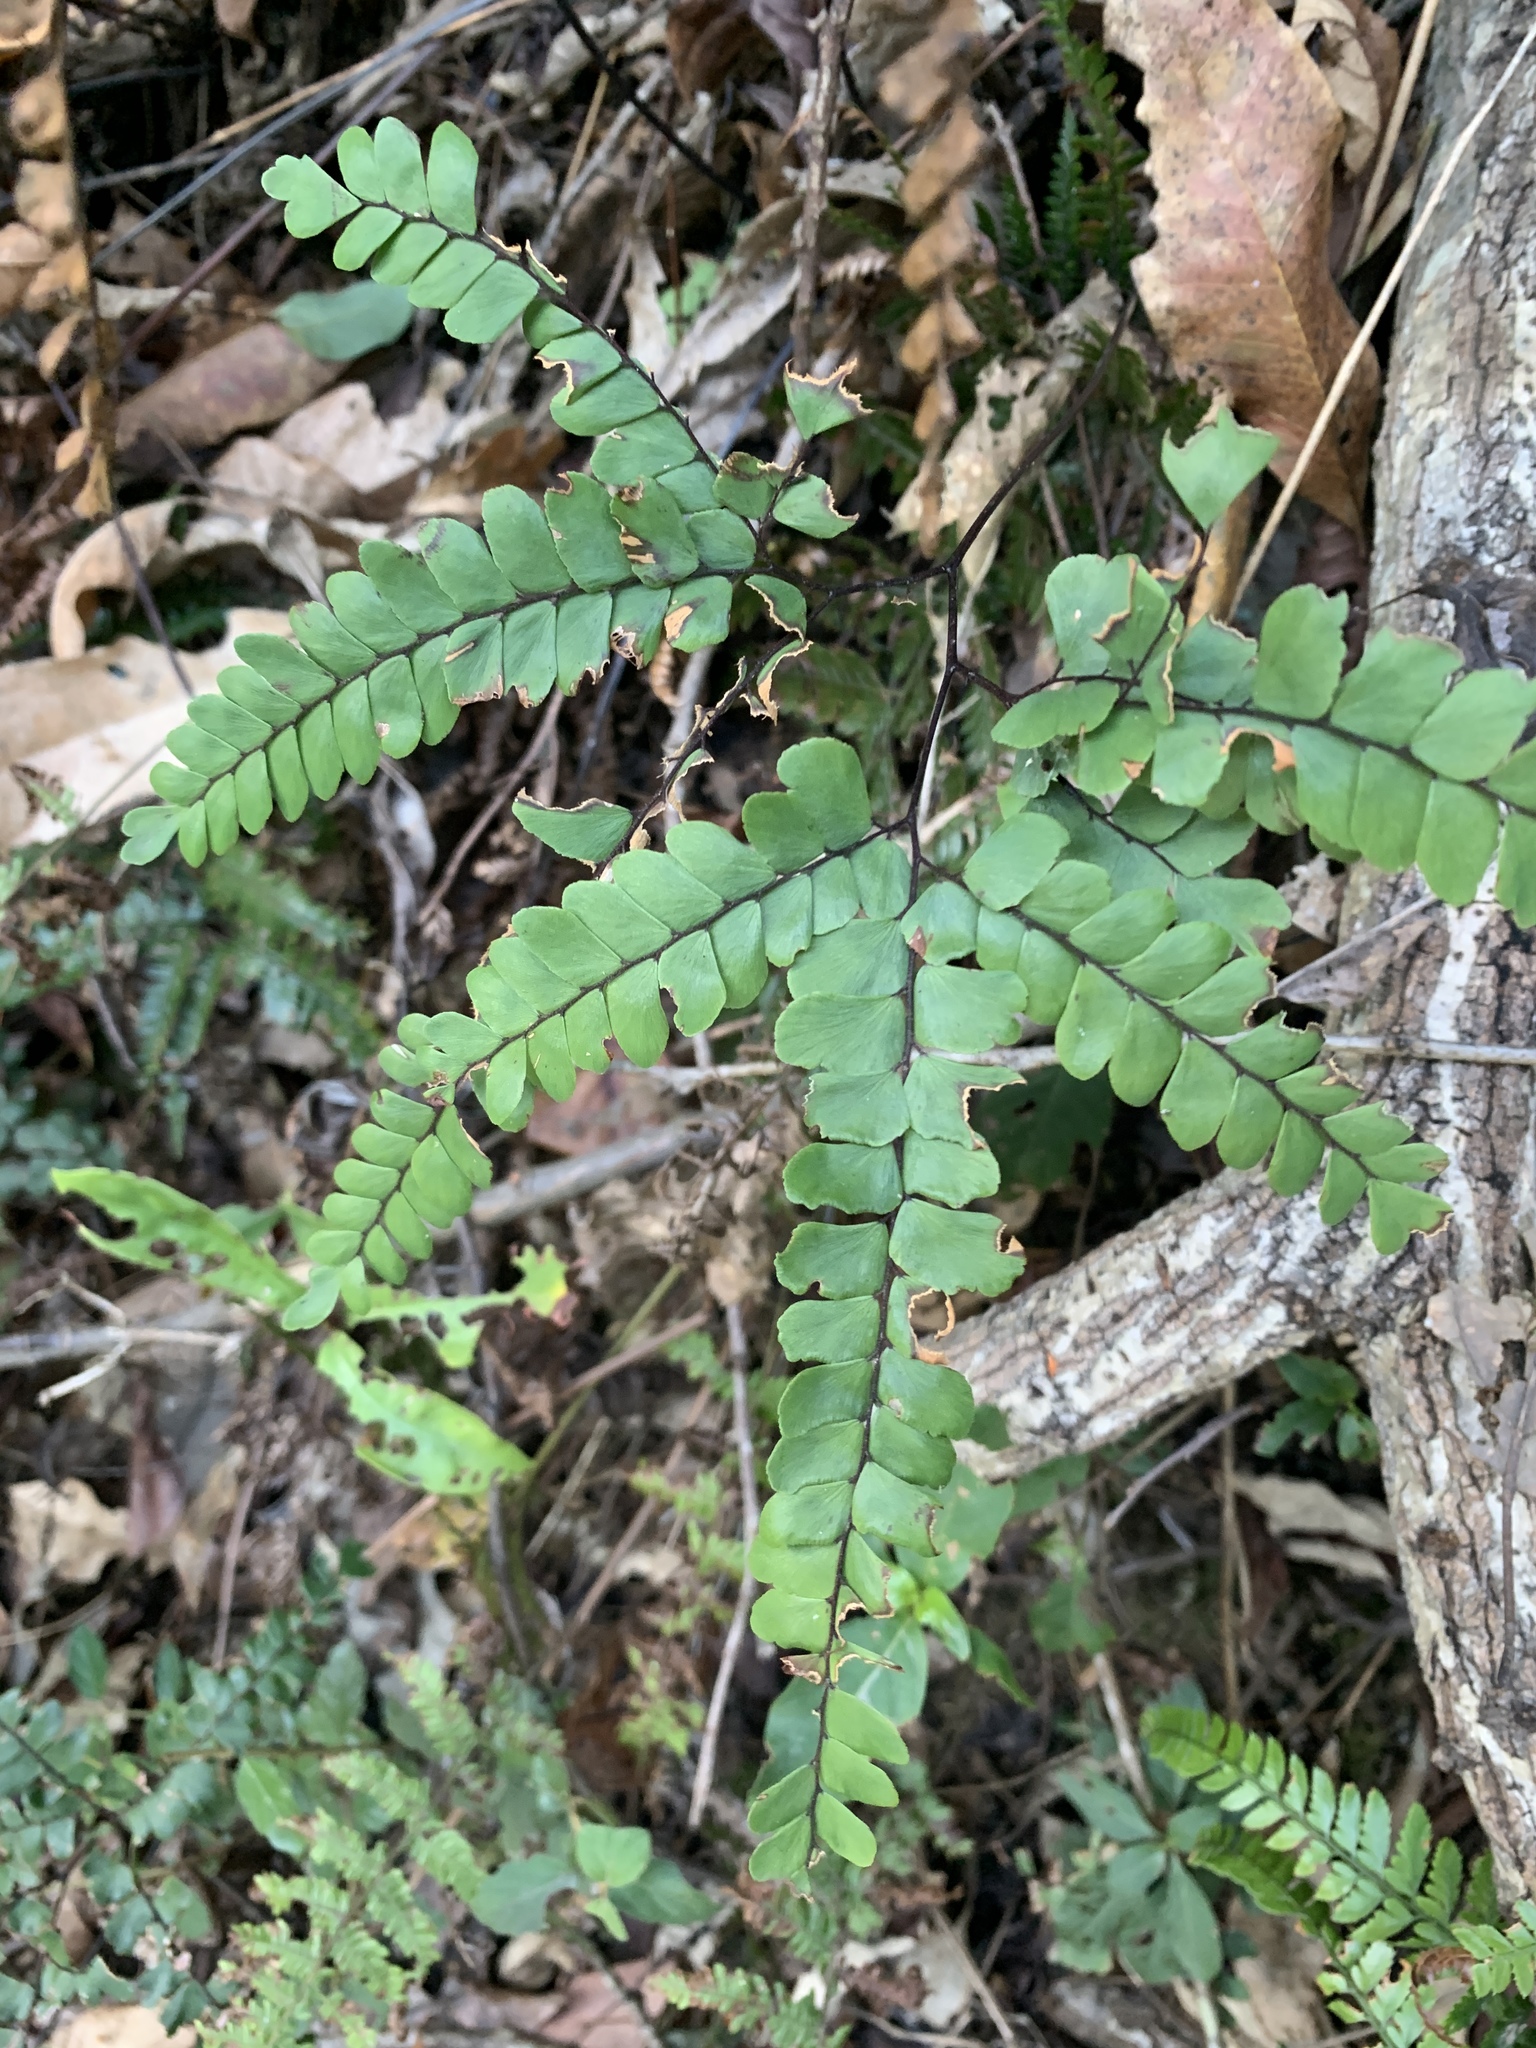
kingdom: Plantae
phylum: Tracheophyta
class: Polypodiopsida
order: Polypodiales
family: Pteridaceae
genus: Adiantum
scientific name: Adiantum flabellulatum
